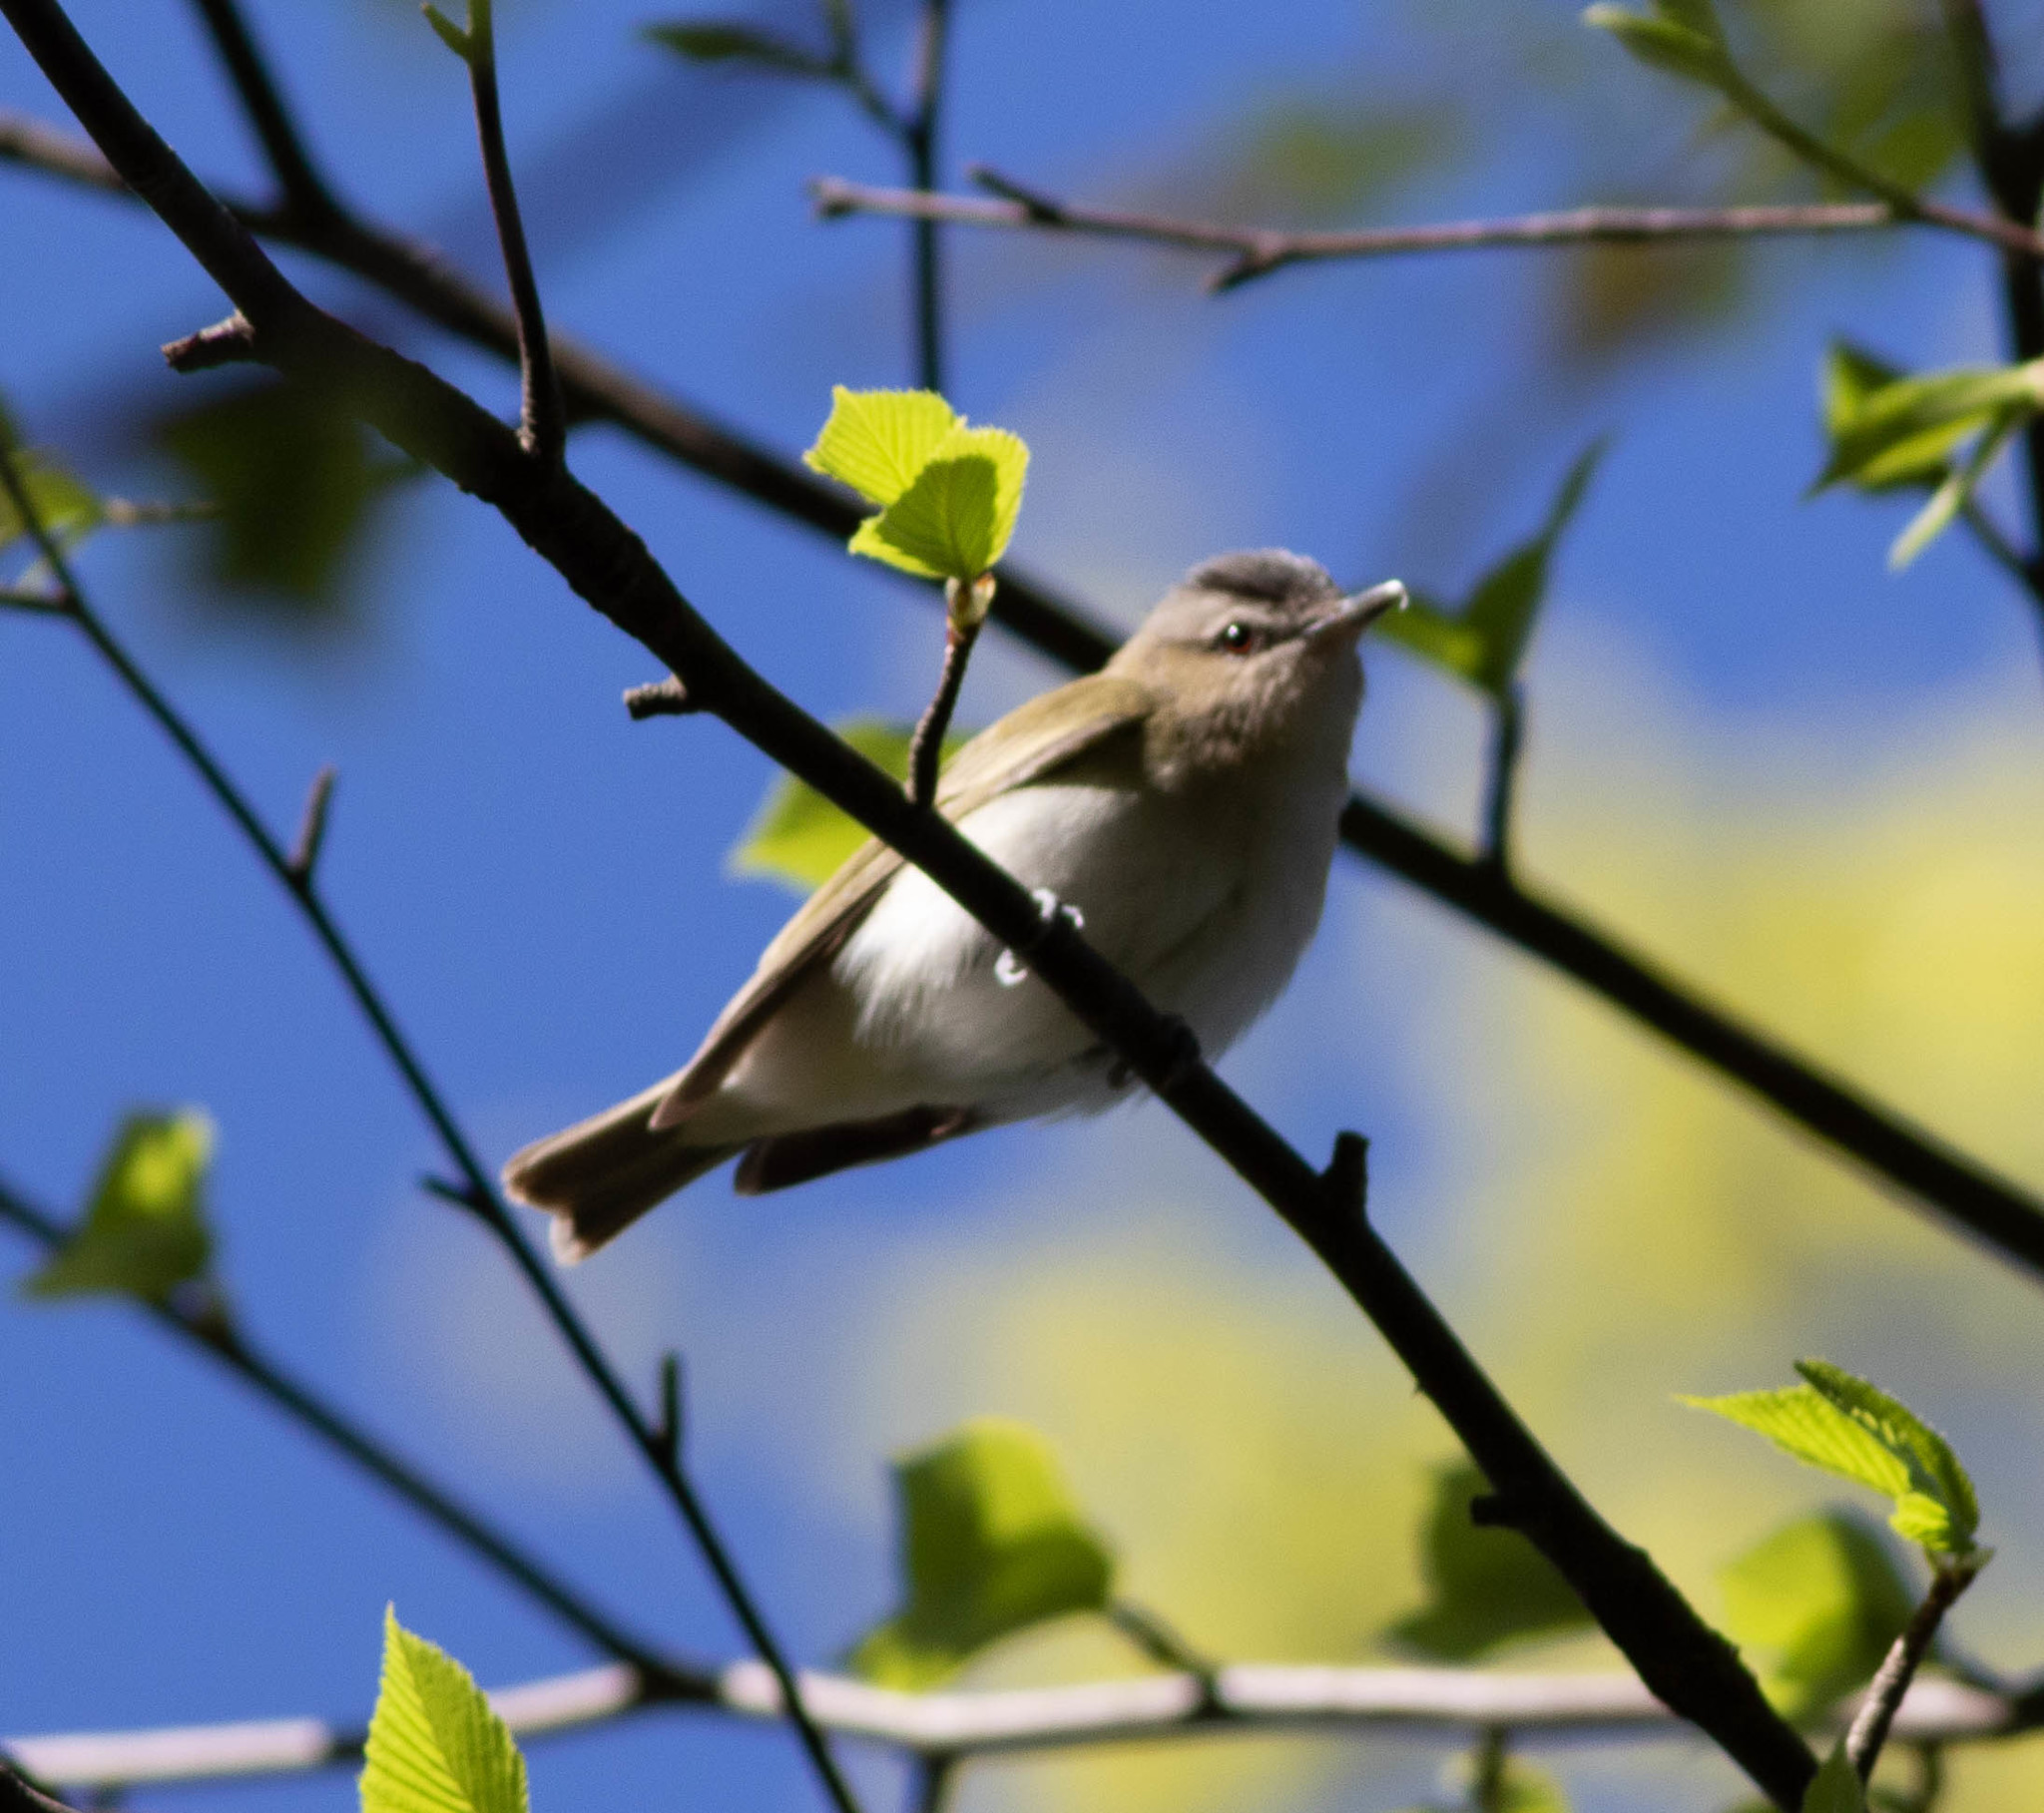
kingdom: Animalia
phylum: Chordata
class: Aves
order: Passeriformes
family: Vireonidae
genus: Vireo
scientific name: Vireo olivaceus
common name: Red-eyed vireo
